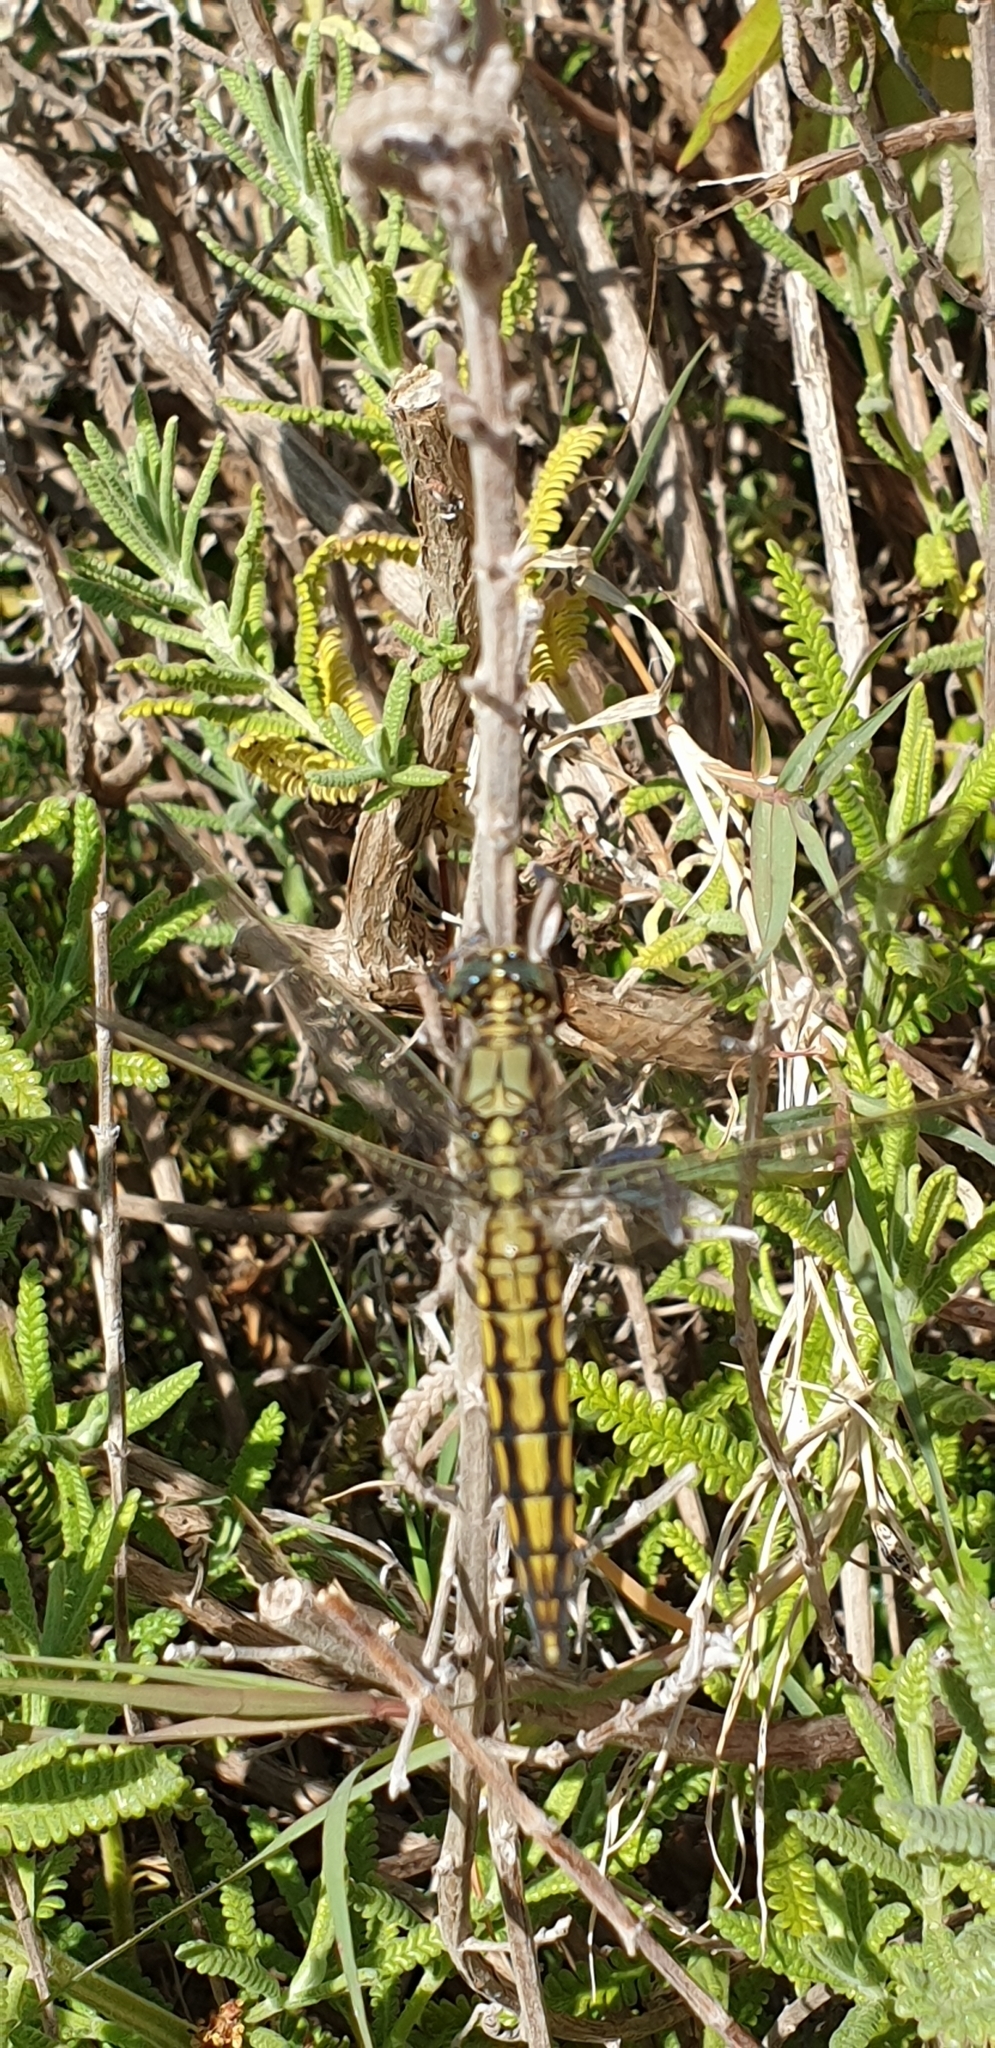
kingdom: Animalia
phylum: Arthropoda
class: Insecta
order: Odonata
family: Libellulidae
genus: Orthetrum
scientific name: Orthetrum cancellatum
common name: Black-tailed skimmer
